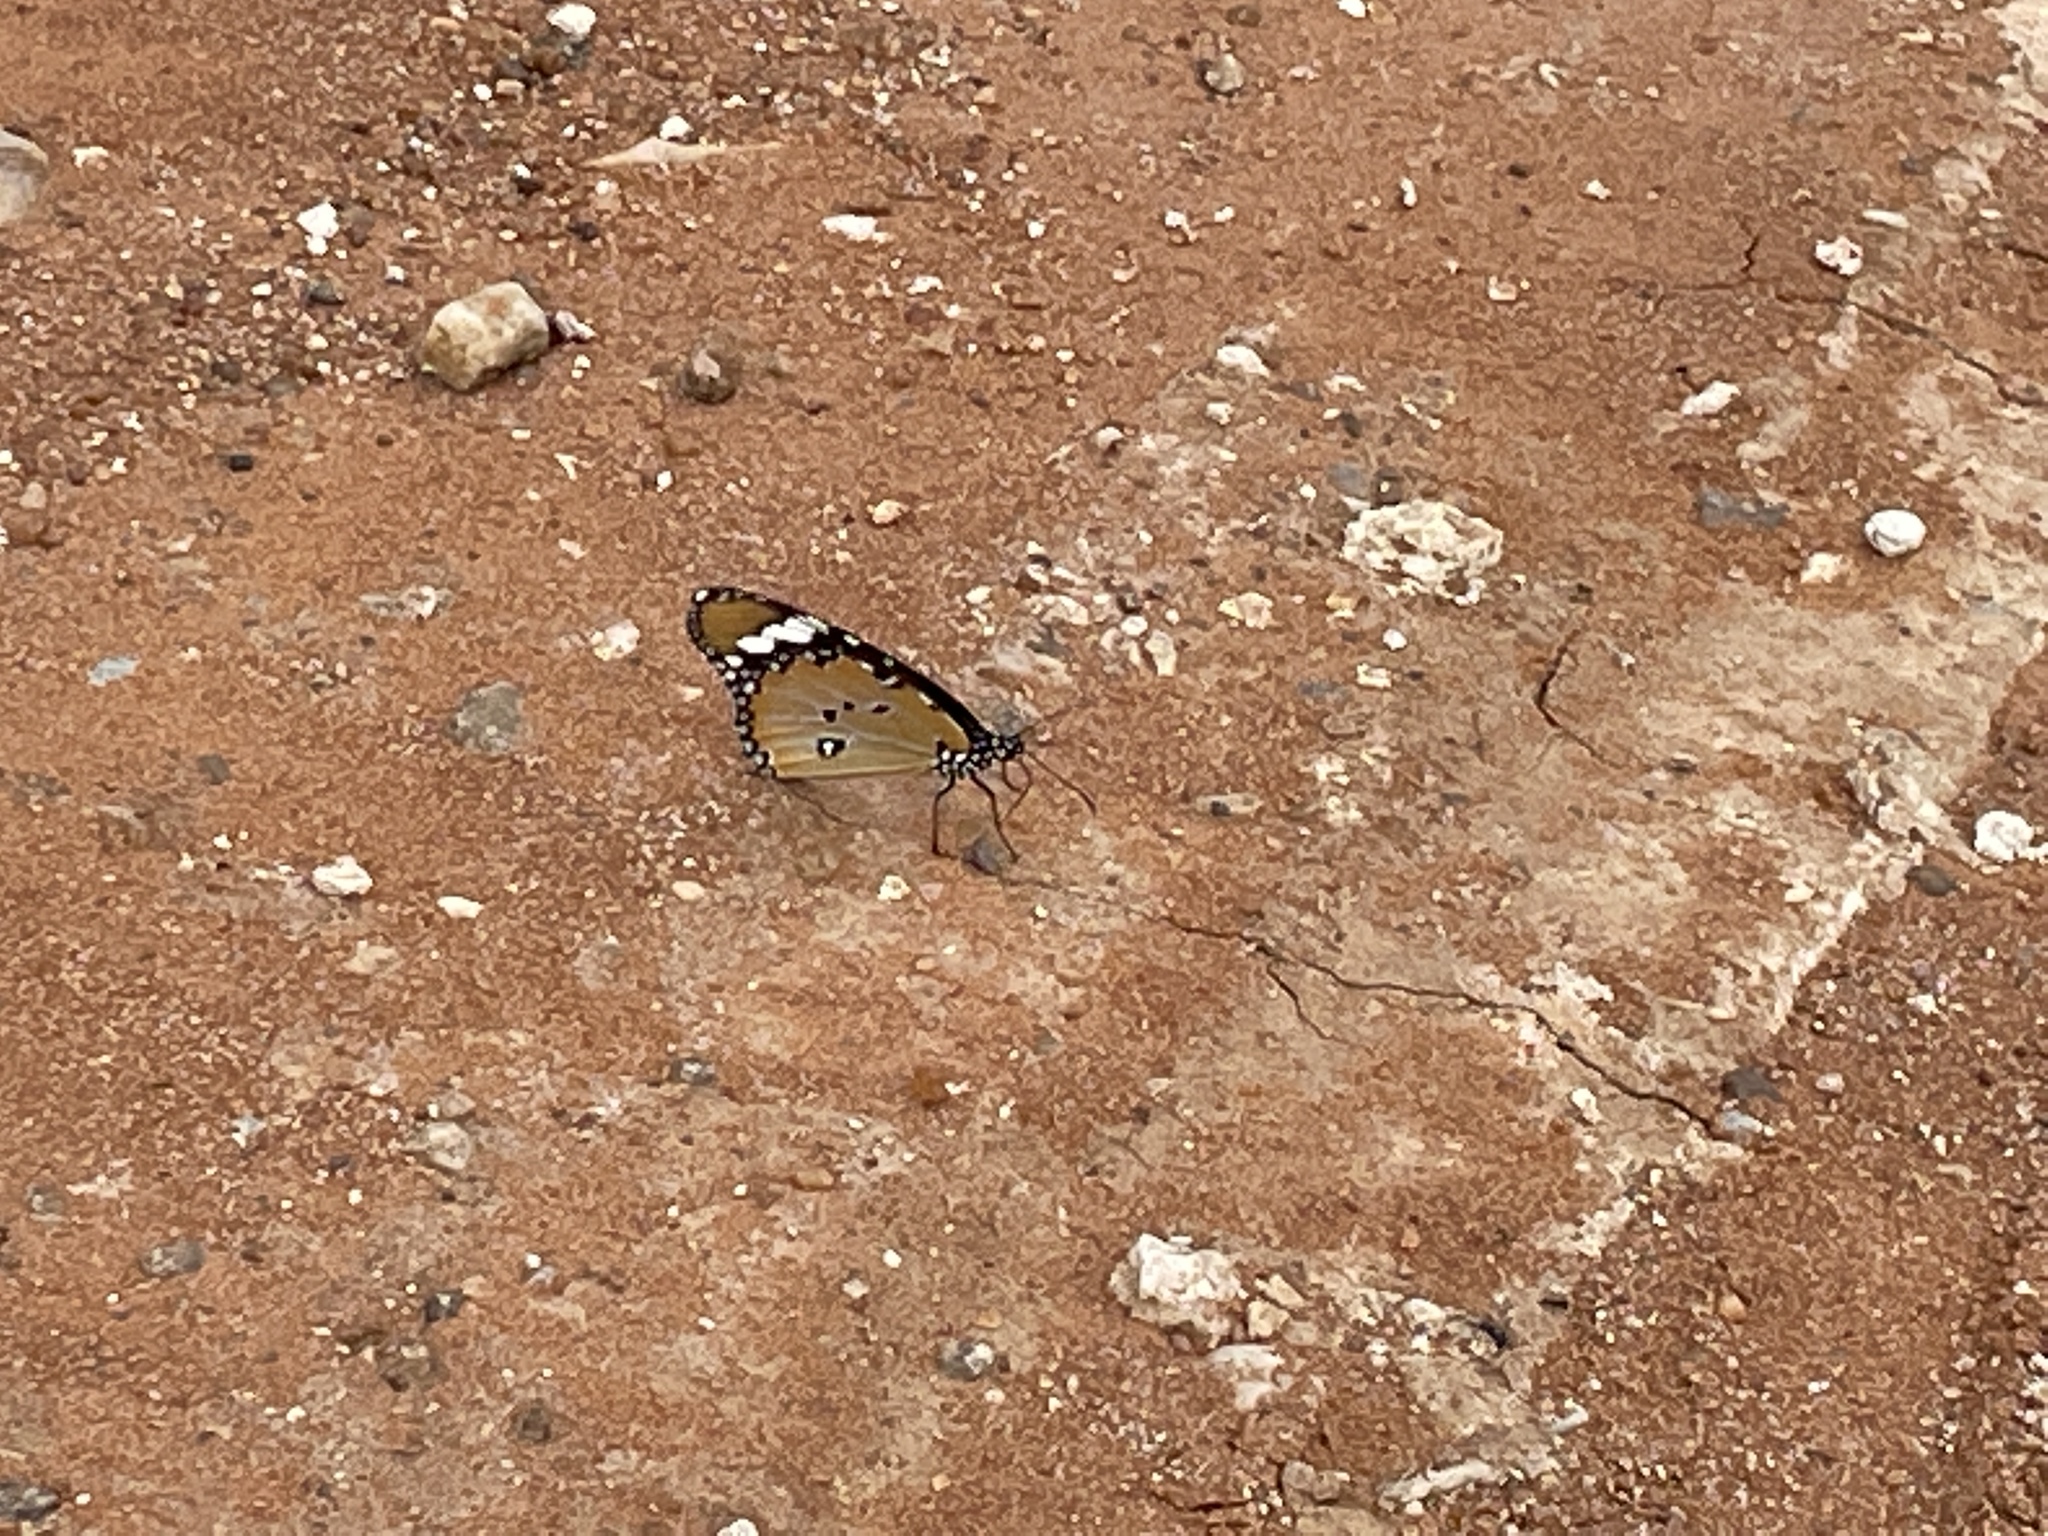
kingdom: Animalia
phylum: Arthropoda
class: Insecta
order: Lepidoptera
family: Nymphalidae
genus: Danaus
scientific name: Danaus chrysippus
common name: Plain tiger
